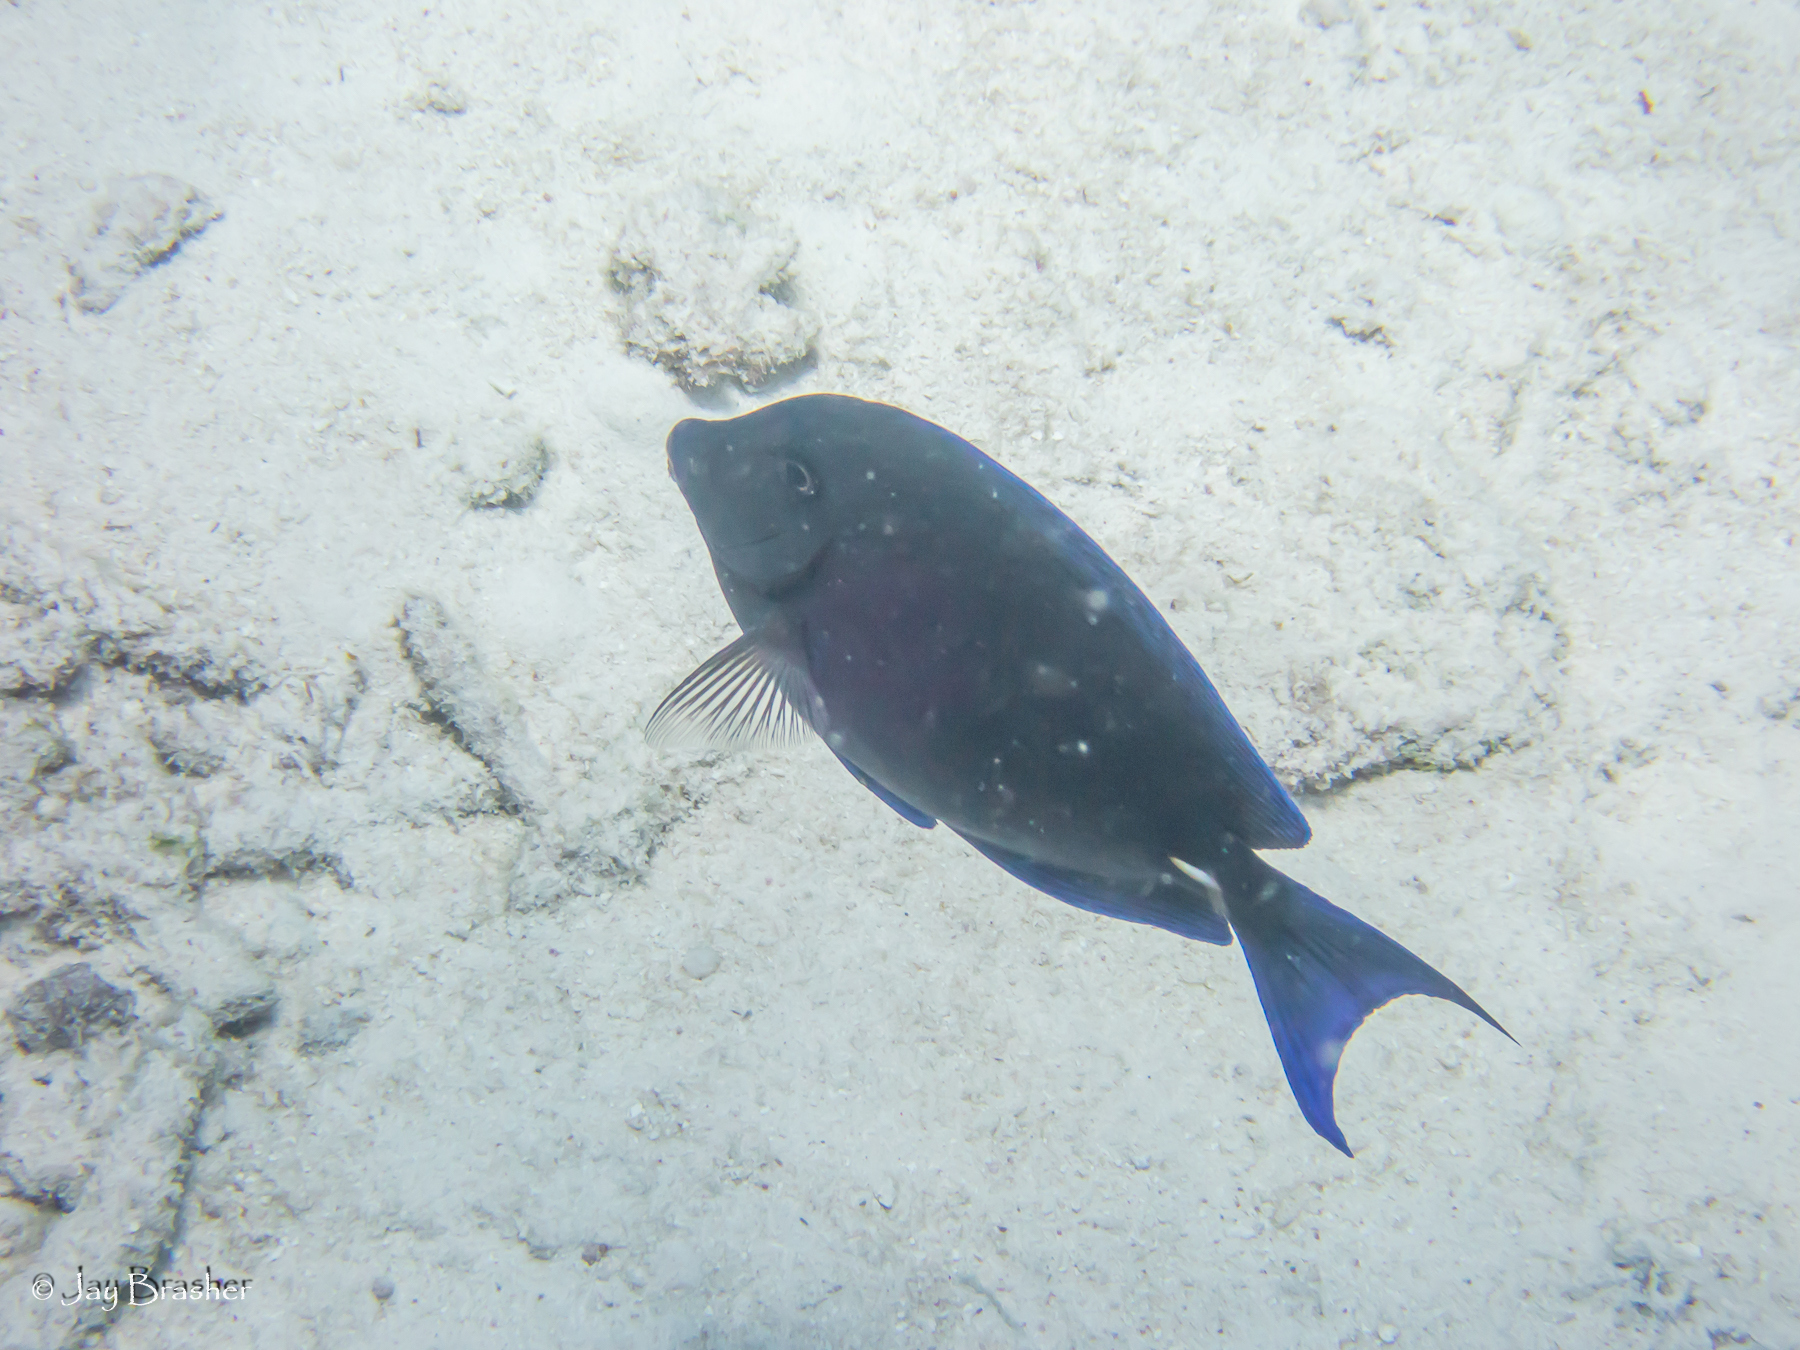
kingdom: Animalia
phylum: Chordata
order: Perciformes
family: Acanthuridae
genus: Acanthurus
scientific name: Acanthurus coeruleus
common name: Blue tang
